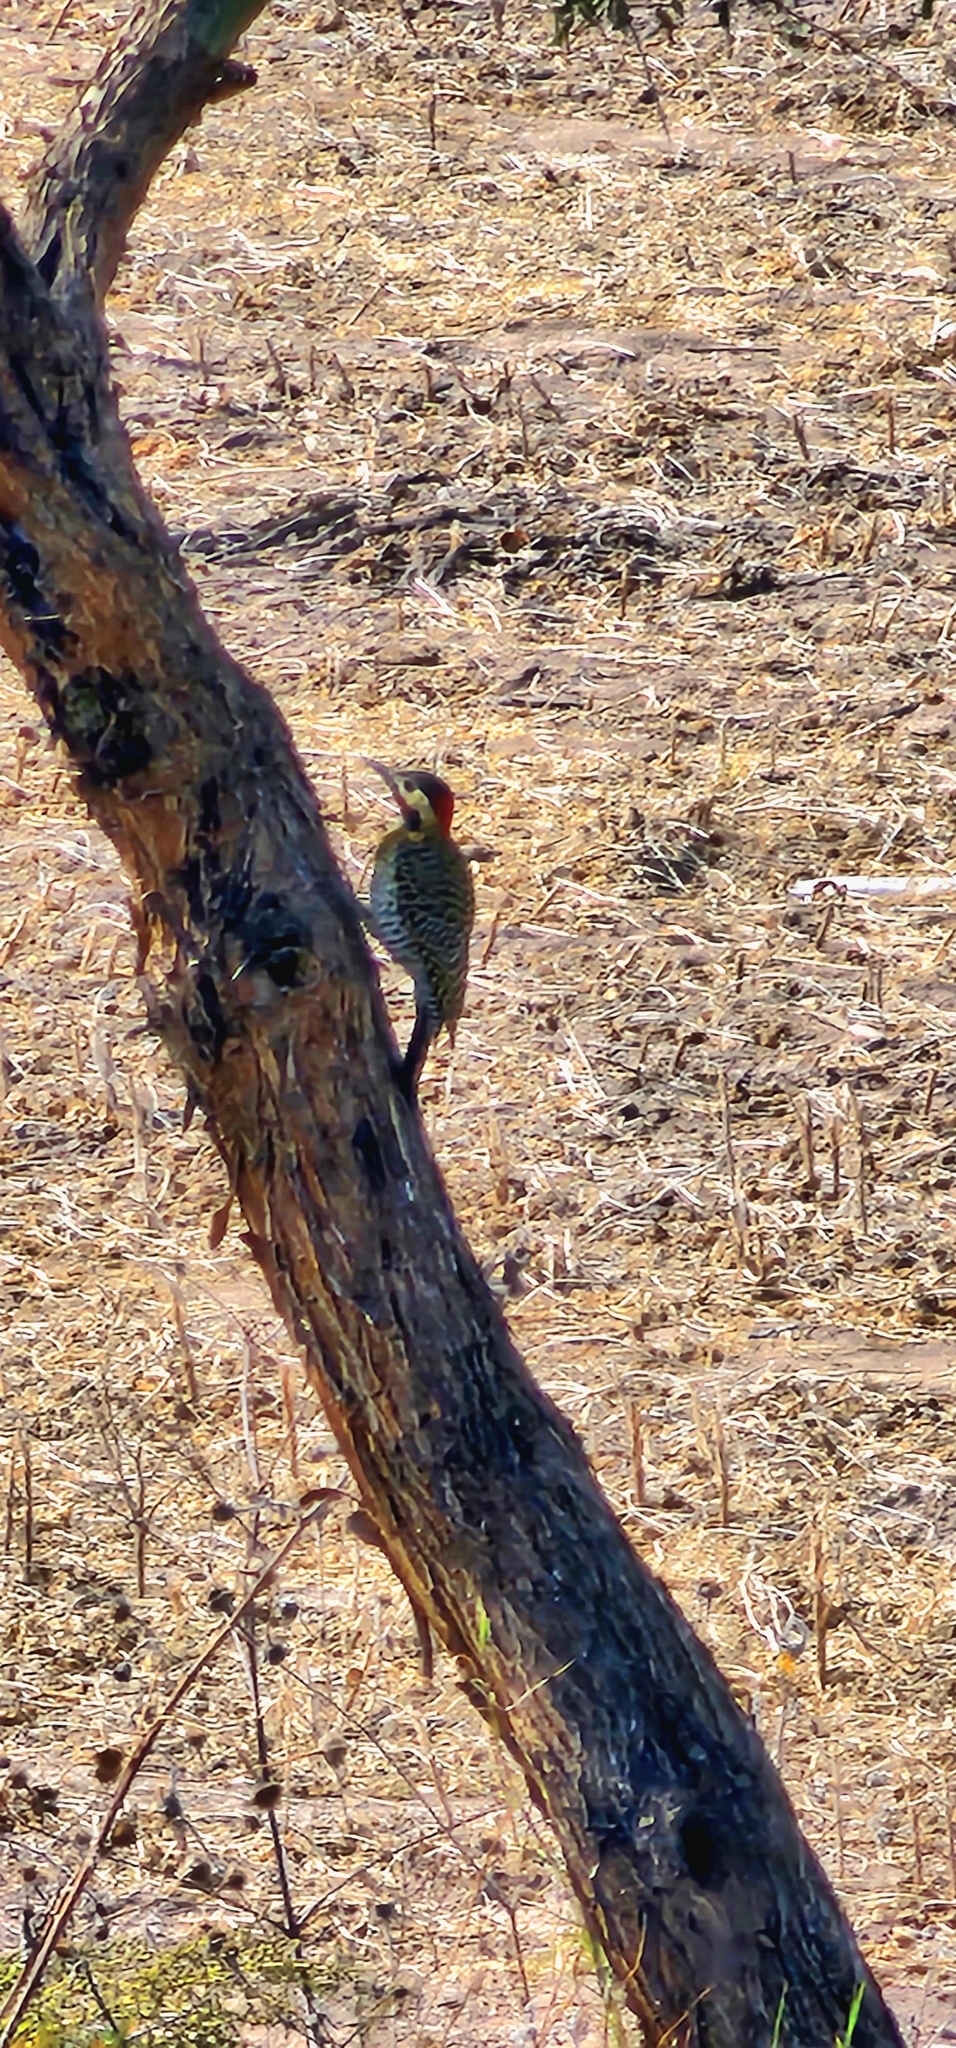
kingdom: Animalia
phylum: Chordata
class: Aves
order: Piciformes
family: Picidae
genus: Colaptes
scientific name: Colaptes melanochloros
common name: Green-barred woodpecker
